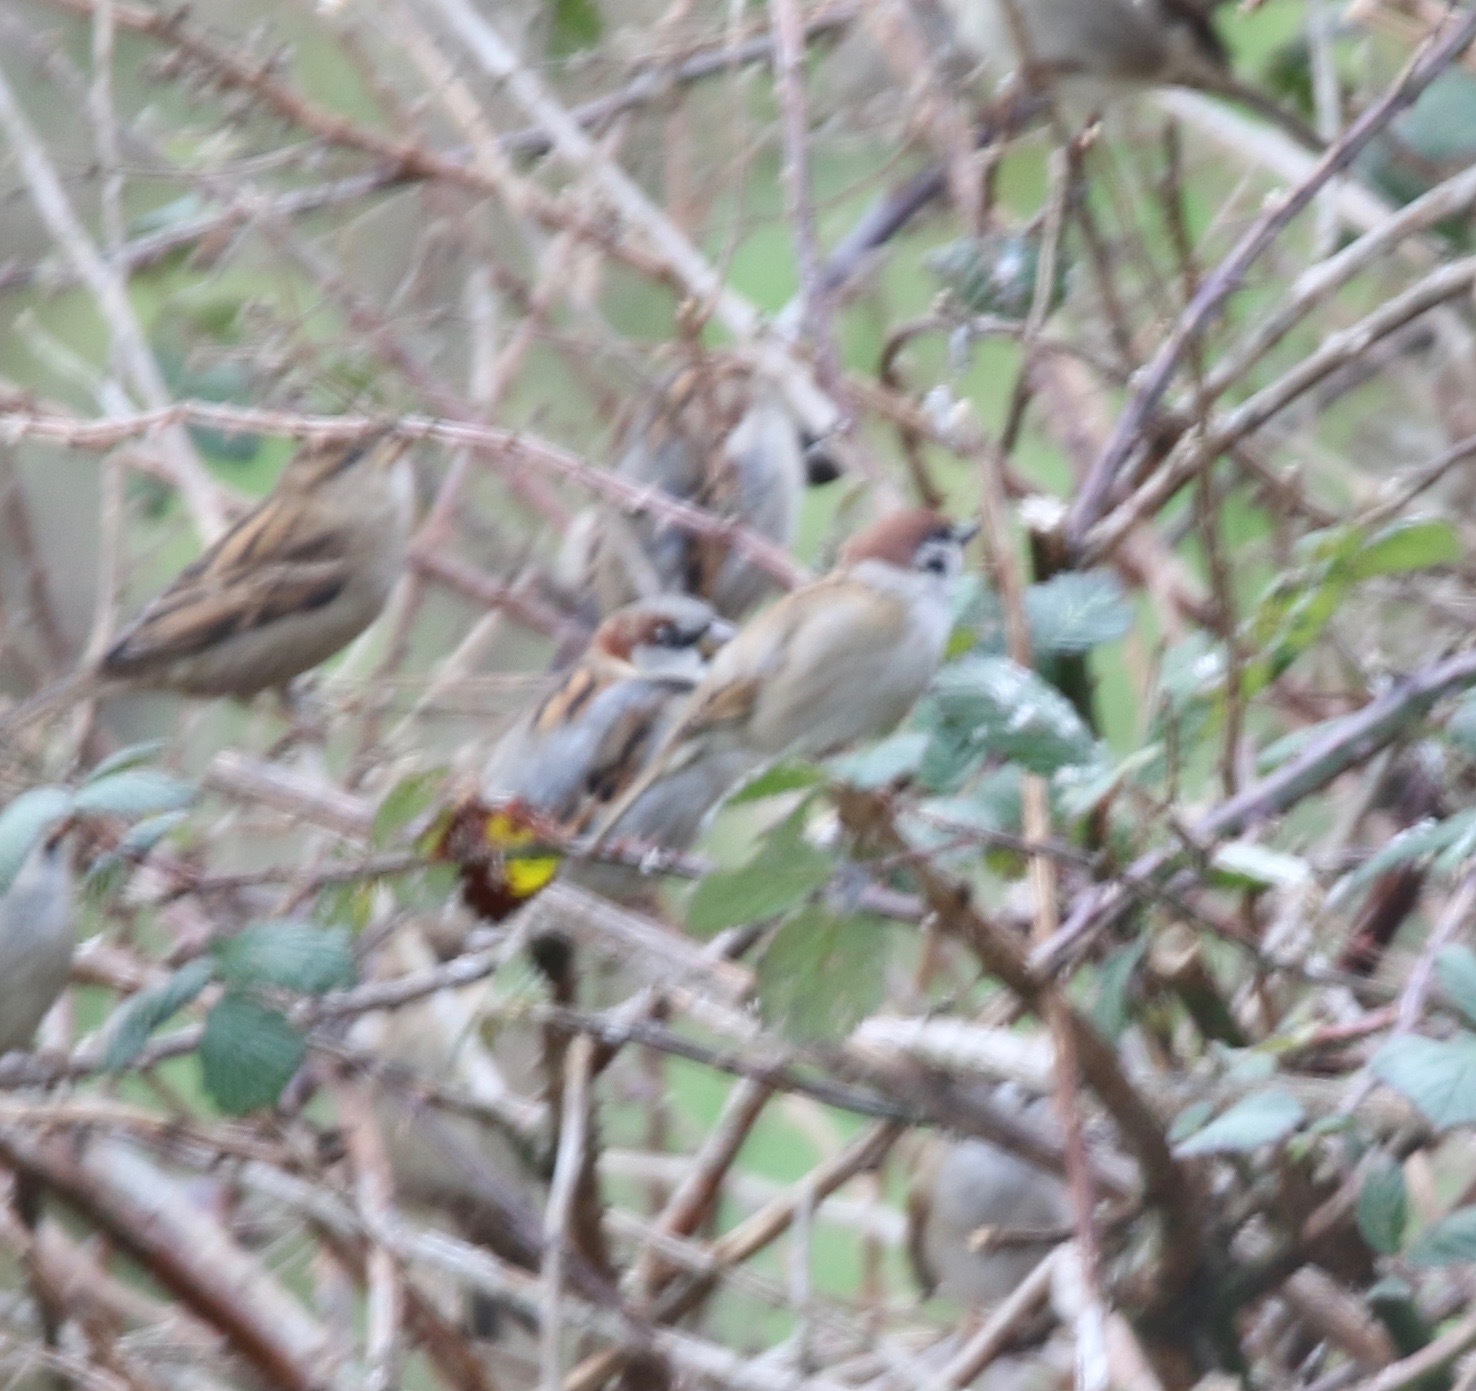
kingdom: Animalia
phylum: Chordata
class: Aves
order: Passeriformes
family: Passeridae
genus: Passer
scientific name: Passer montanus
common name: Eurasian tree sparrow
